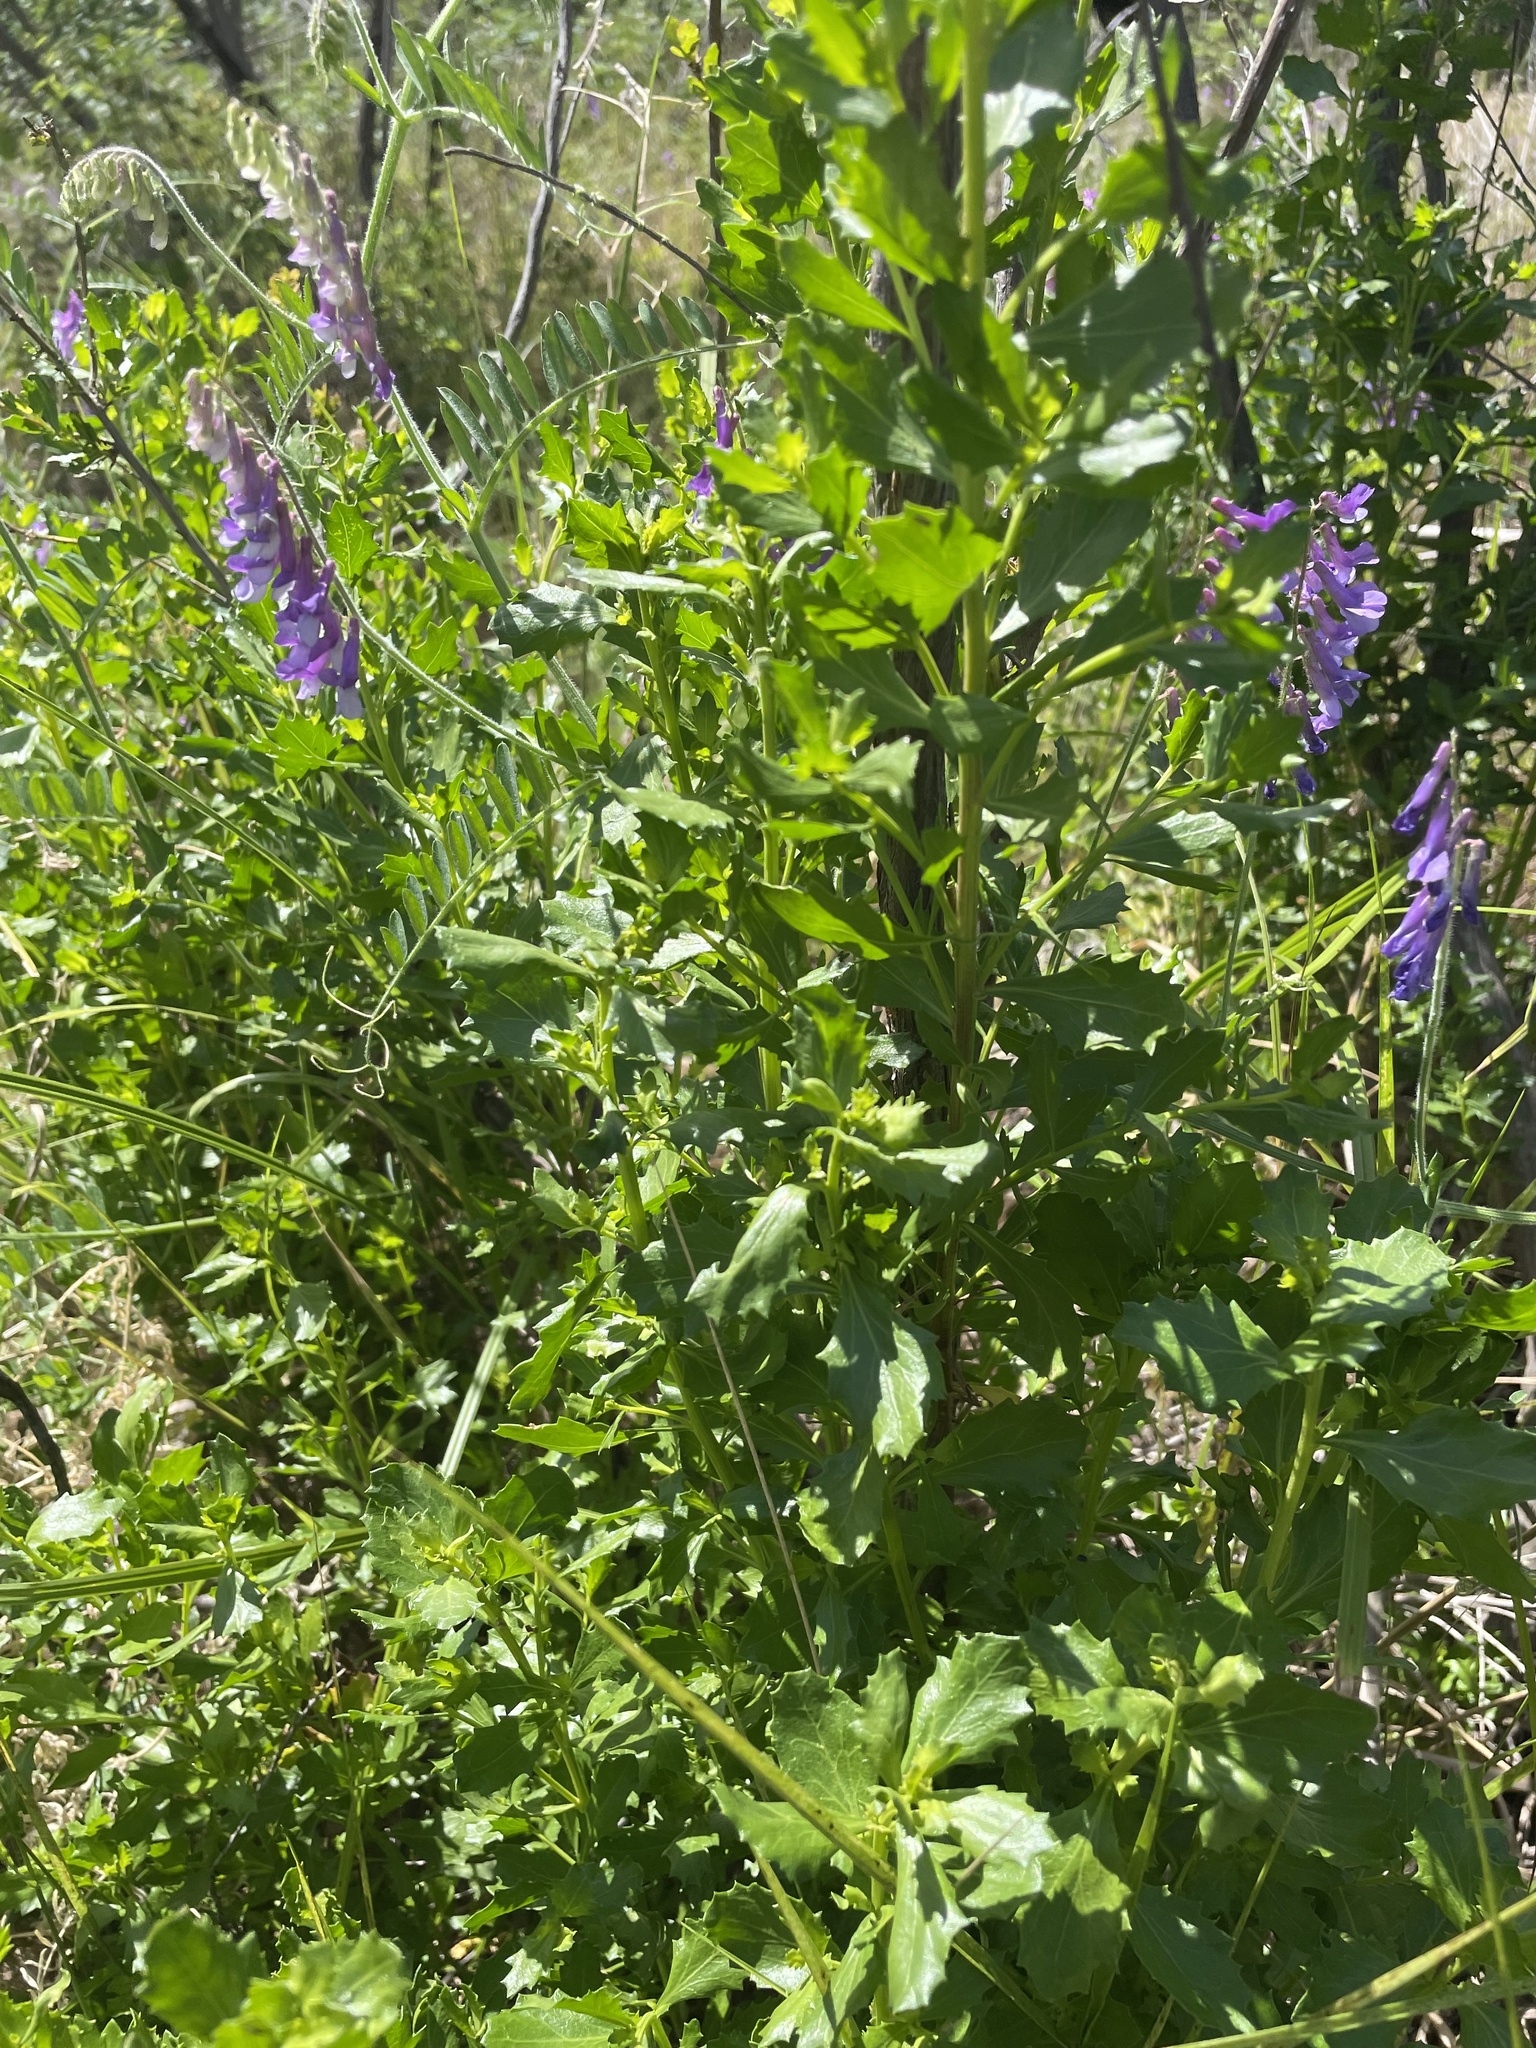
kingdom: Plantae
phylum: Tracheophyta
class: Magnoliopsida
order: Asterales
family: Asteraceae
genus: Baccharis
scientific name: Baccharis pilularis
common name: Coyotebrush
